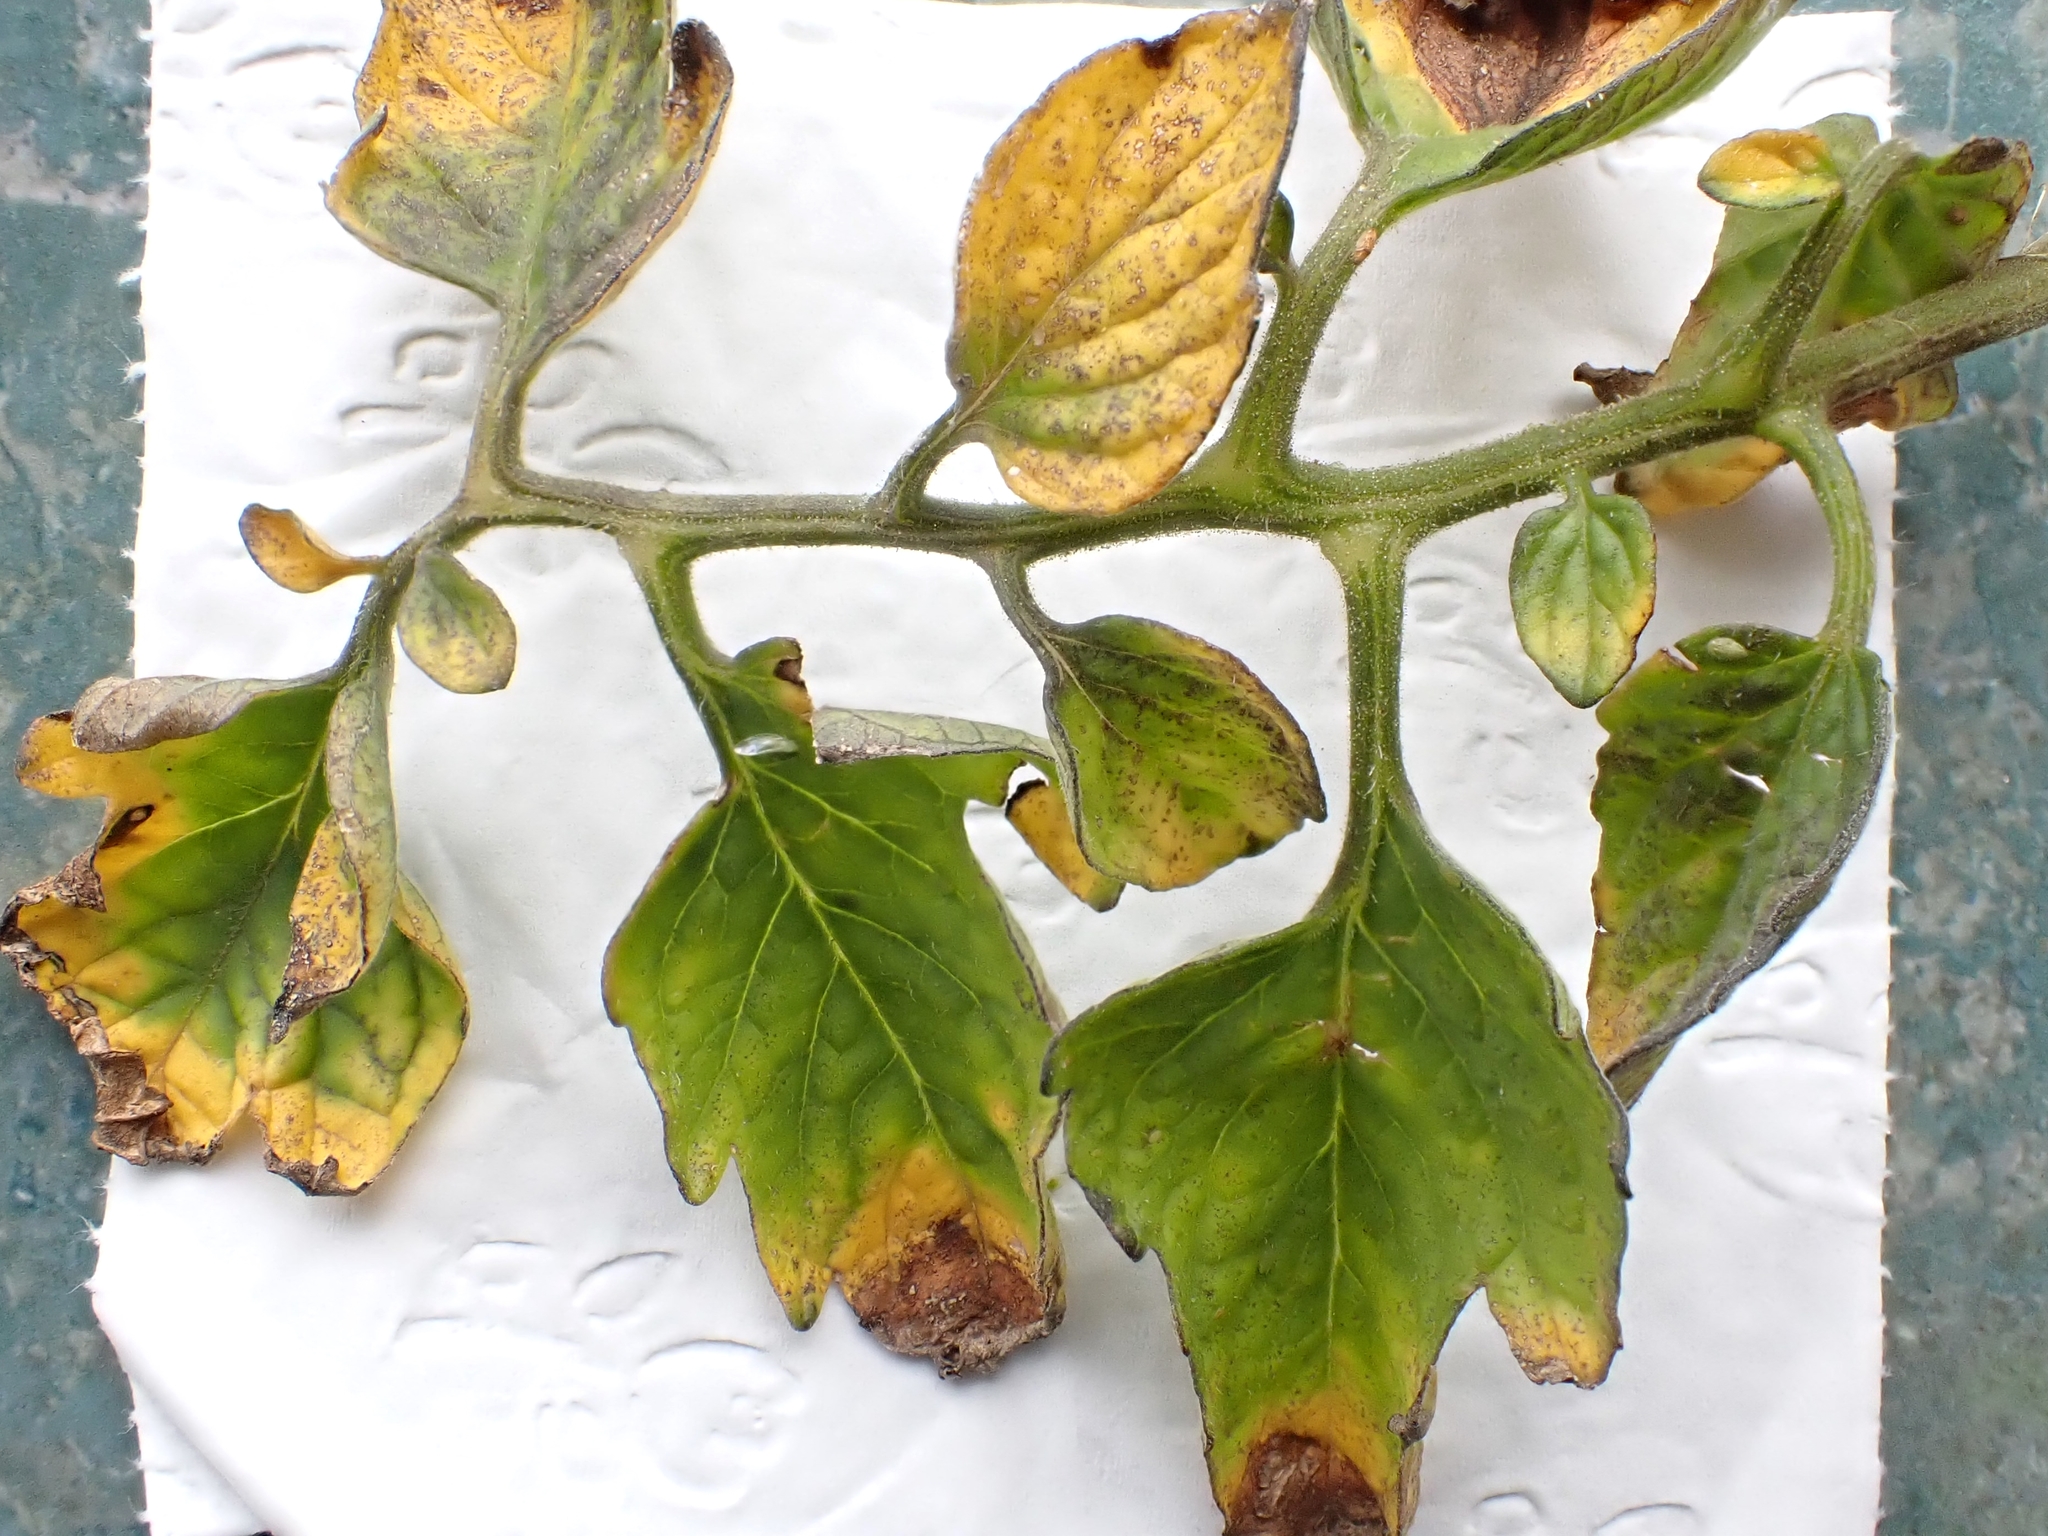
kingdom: Animalia
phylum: Arthropoda
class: Insecta
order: Hemiptera
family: Triozidae
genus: Bactericera
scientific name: Bactericera cockerelli
